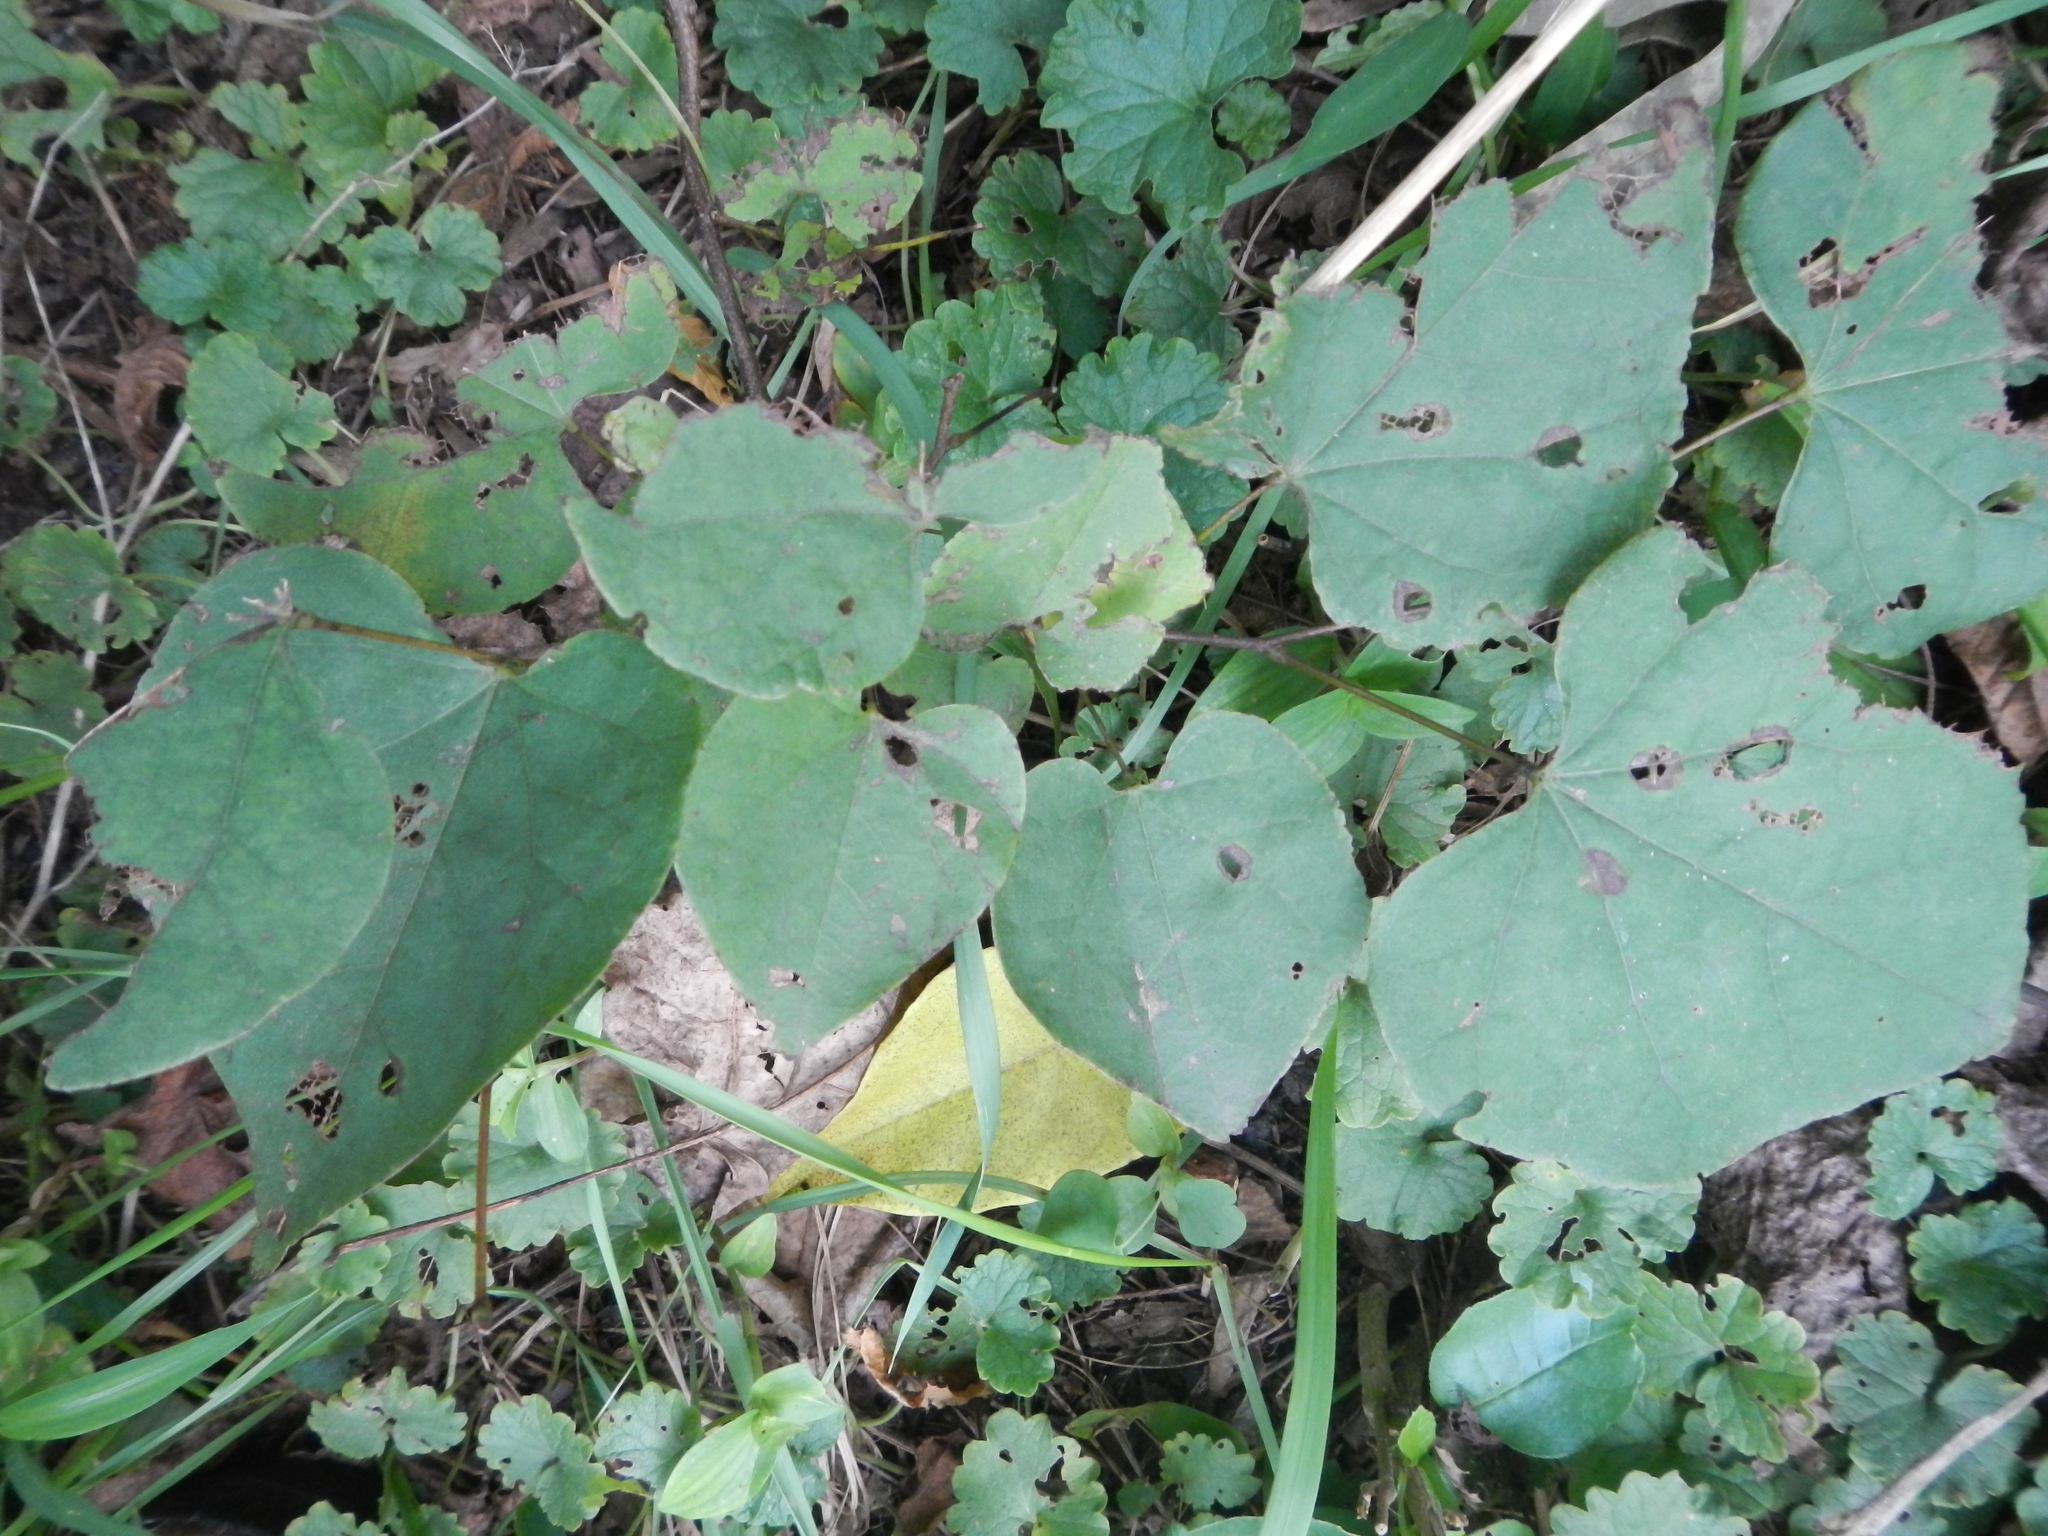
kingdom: Plantae
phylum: Tracheophyta
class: Magnoliopsida
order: Fabales
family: Fabaceae
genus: Cercis
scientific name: Cercis canadensis
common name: Eastern redbud
